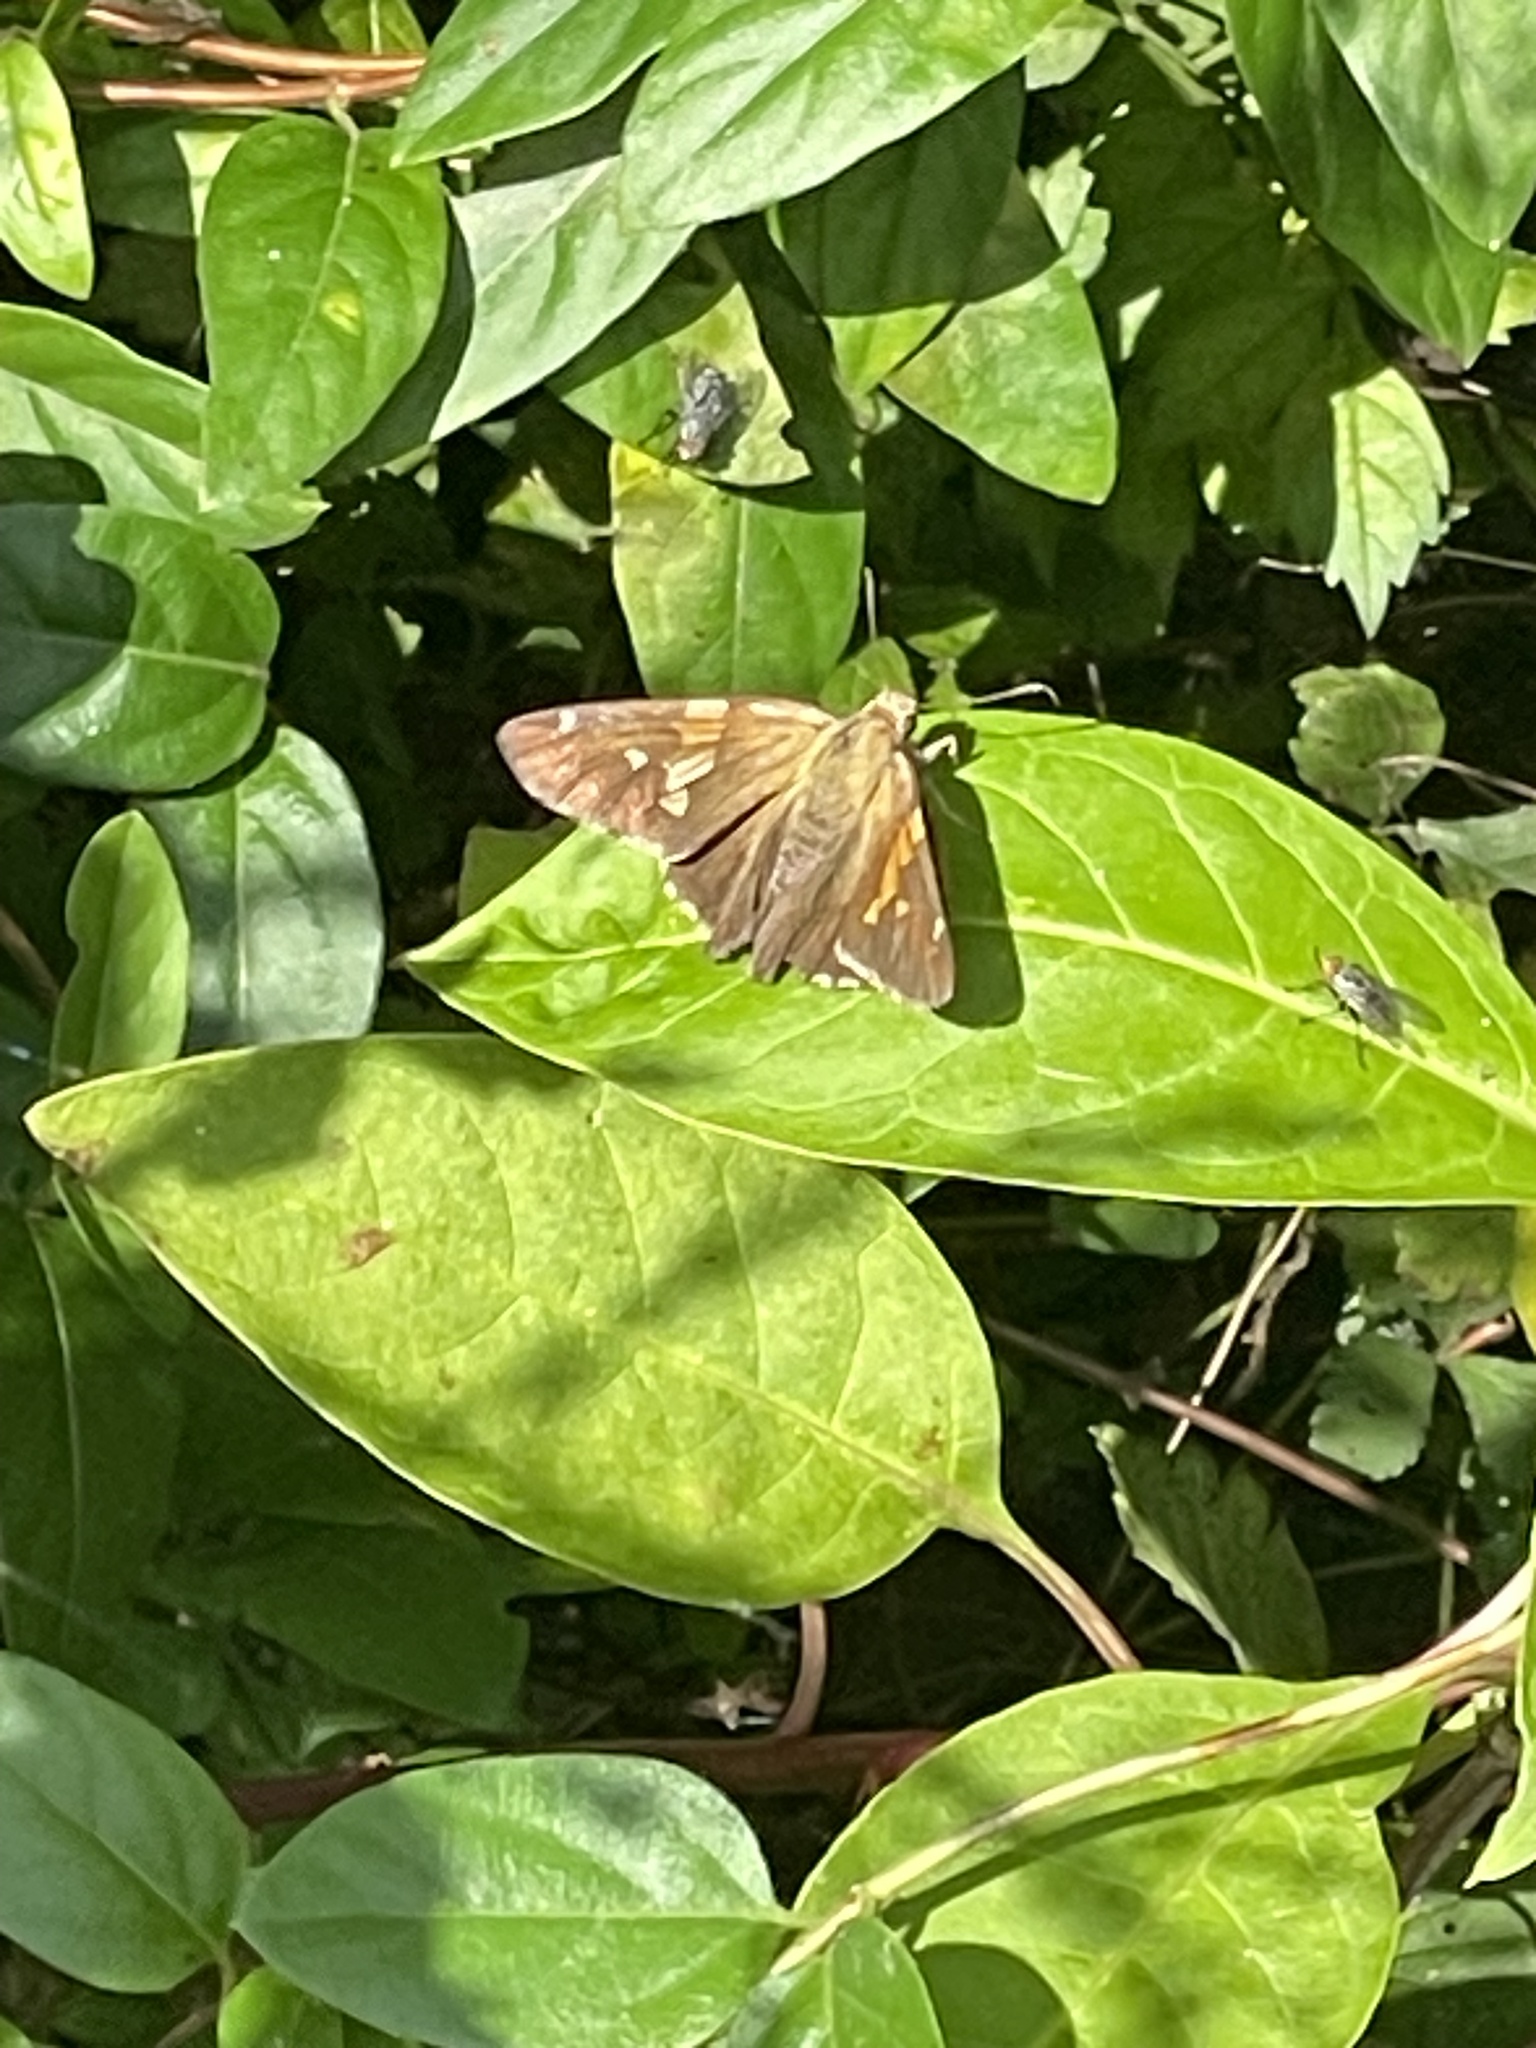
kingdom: Animalia
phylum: Arthropoda
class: Insecta
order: Lepidoptera
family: Hesperiidae
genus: Epargyreus
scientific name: Epargyreus clarus
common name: Silver-spotted skipper
